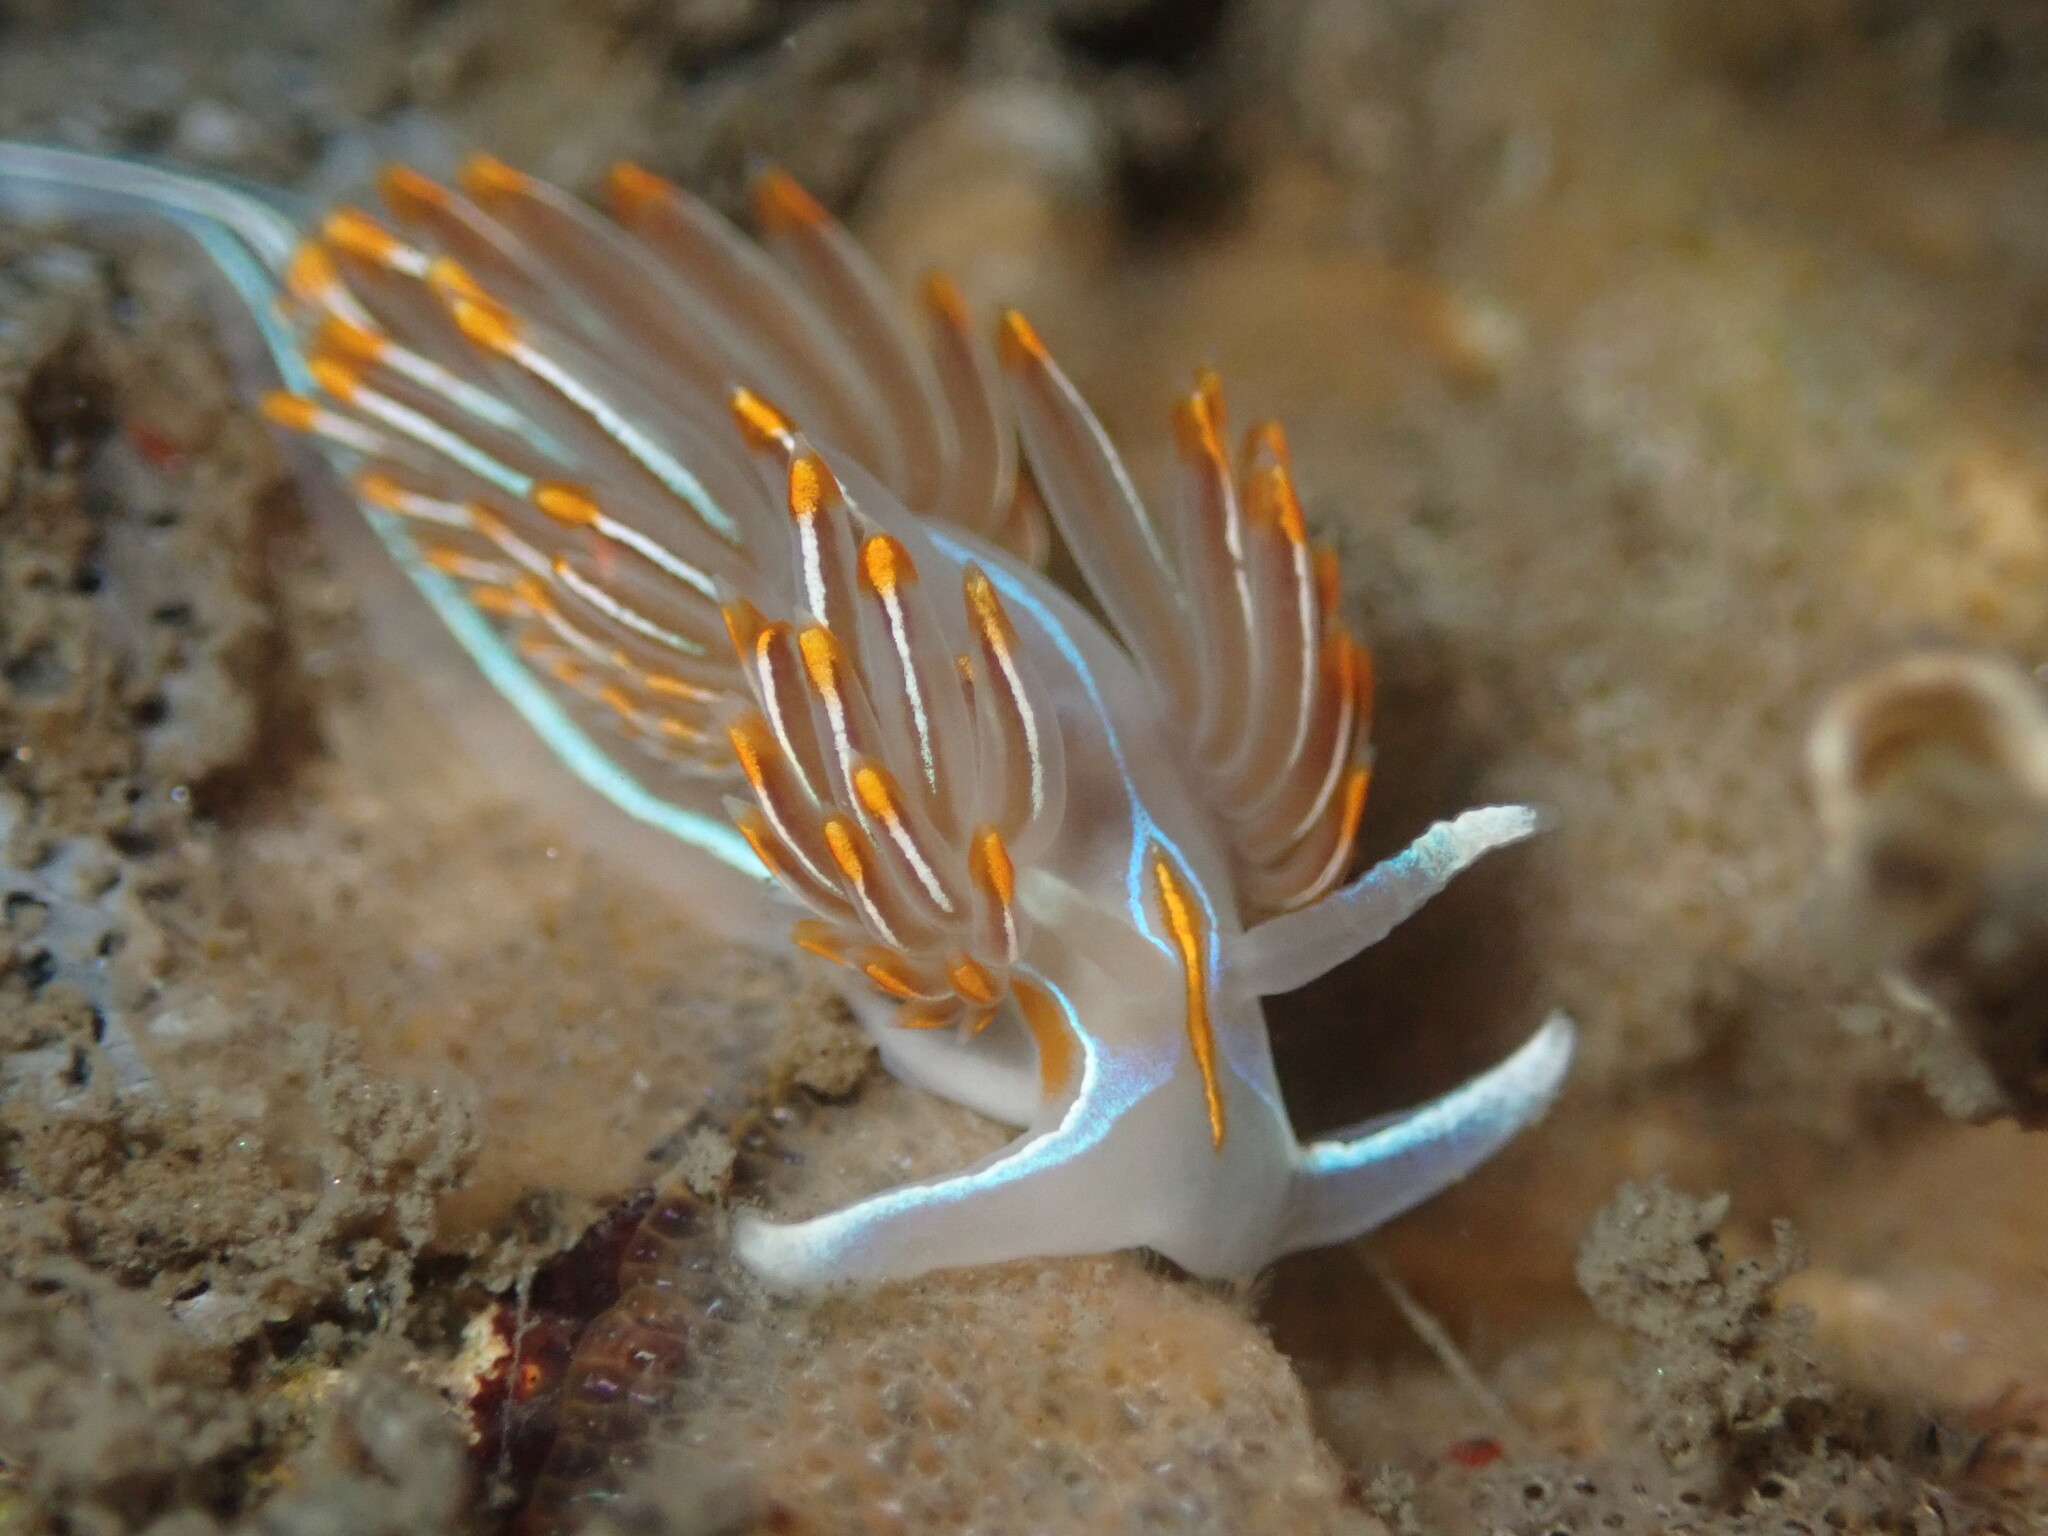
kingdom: Animalia
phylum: Mollusca
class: Gastropoda
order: Nudibranchia
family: Myrrhinidae
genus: Hermissenda
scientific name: Hermissenda crassicornis
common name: Hermissenda
